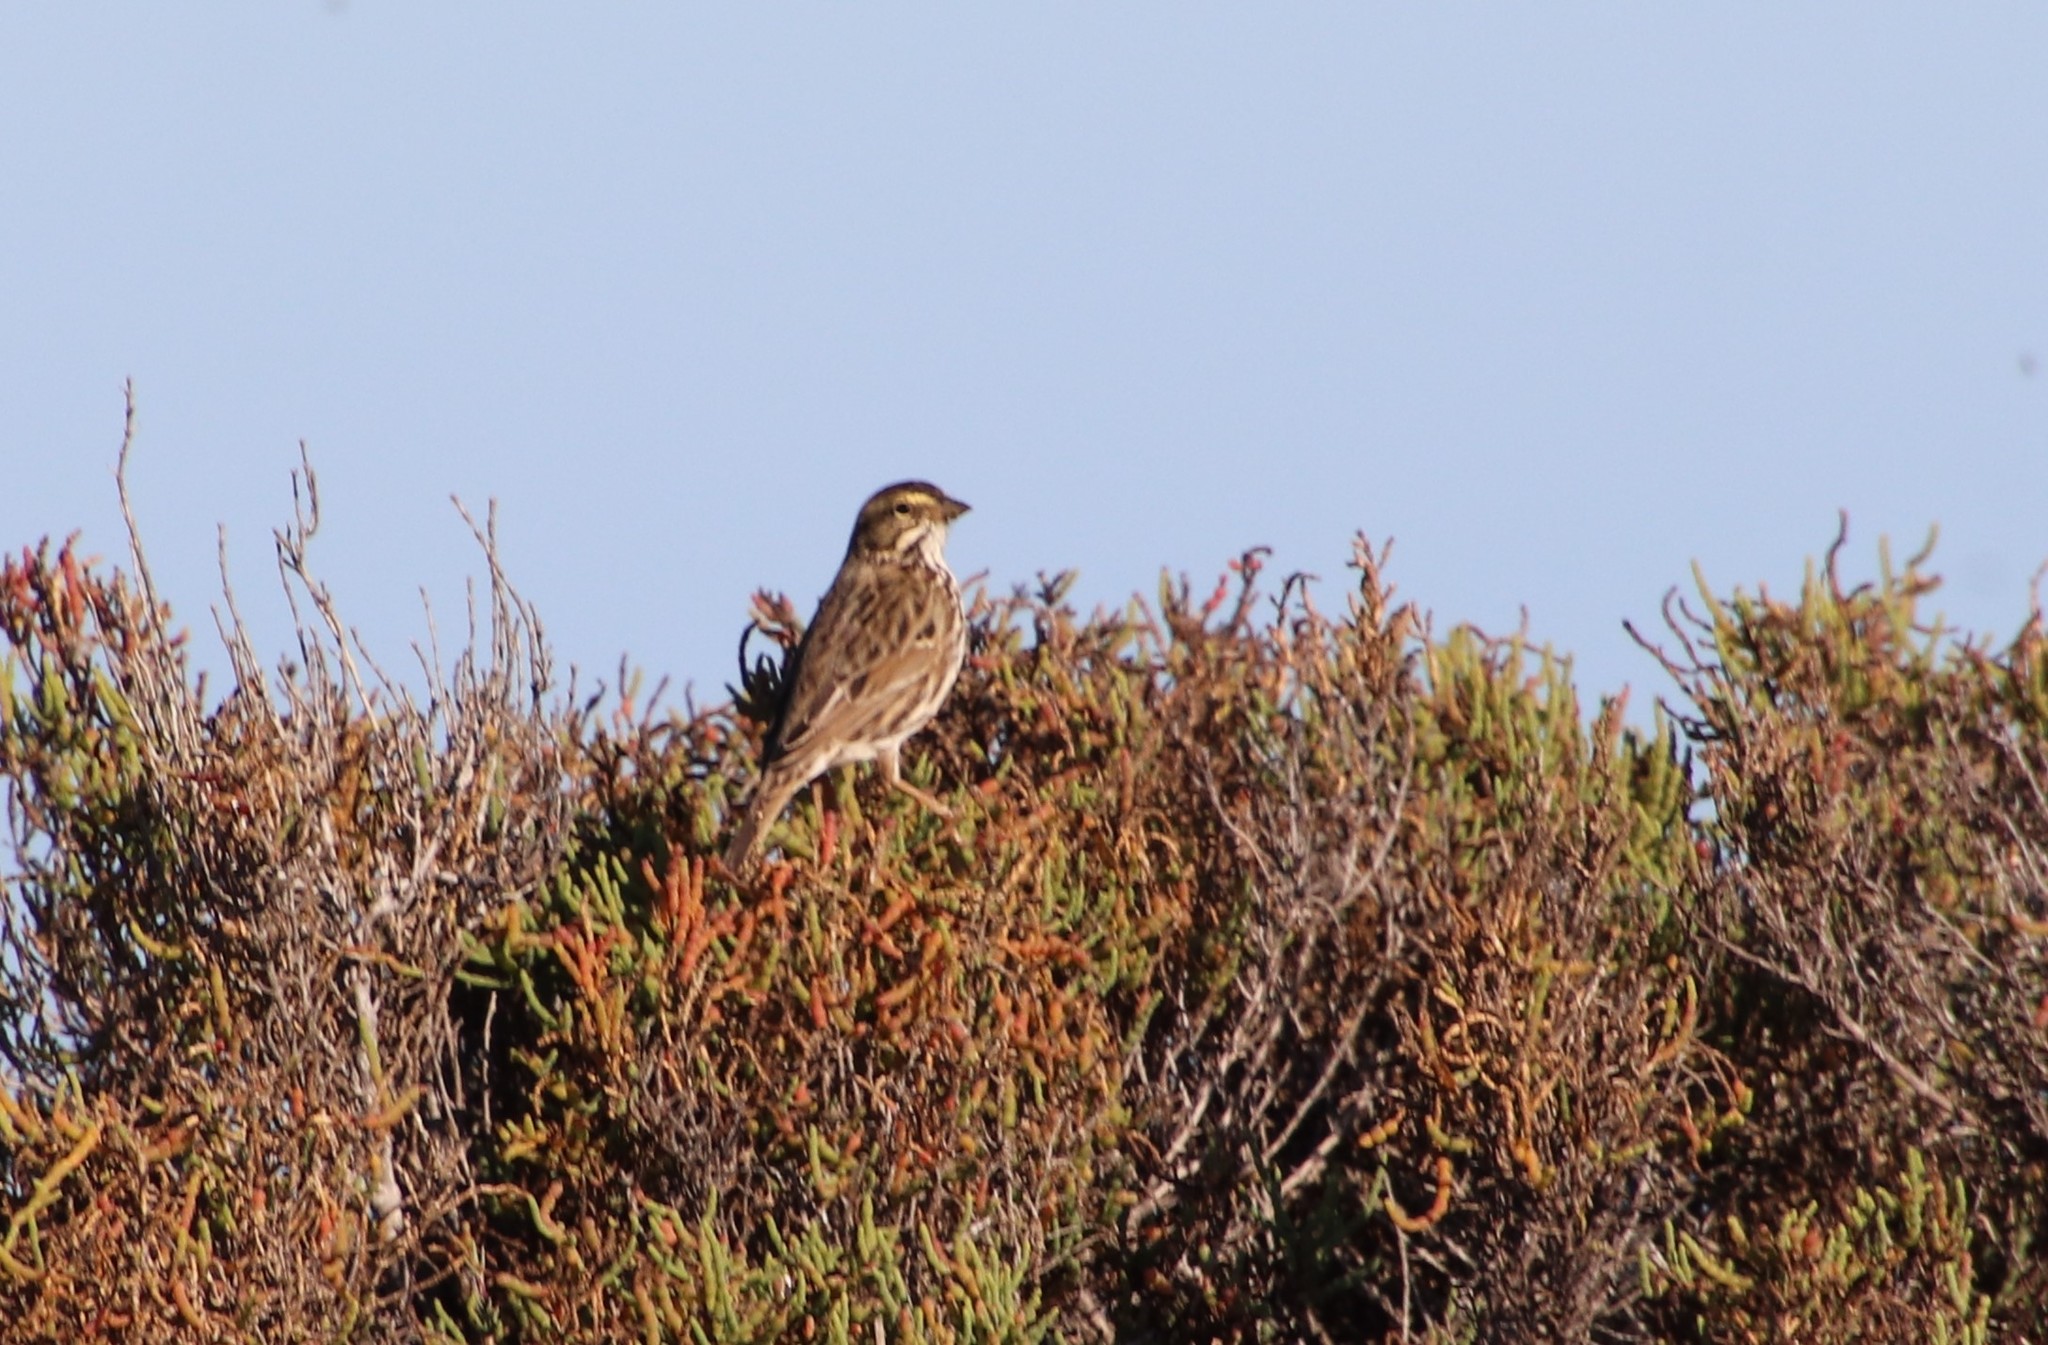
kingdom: Animalia
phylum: Chordata
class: Aves
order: Passeriformes
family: Passerellidae
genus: Passerculus
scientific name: Passerculus sandwichensis
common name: Savannah sparrow
